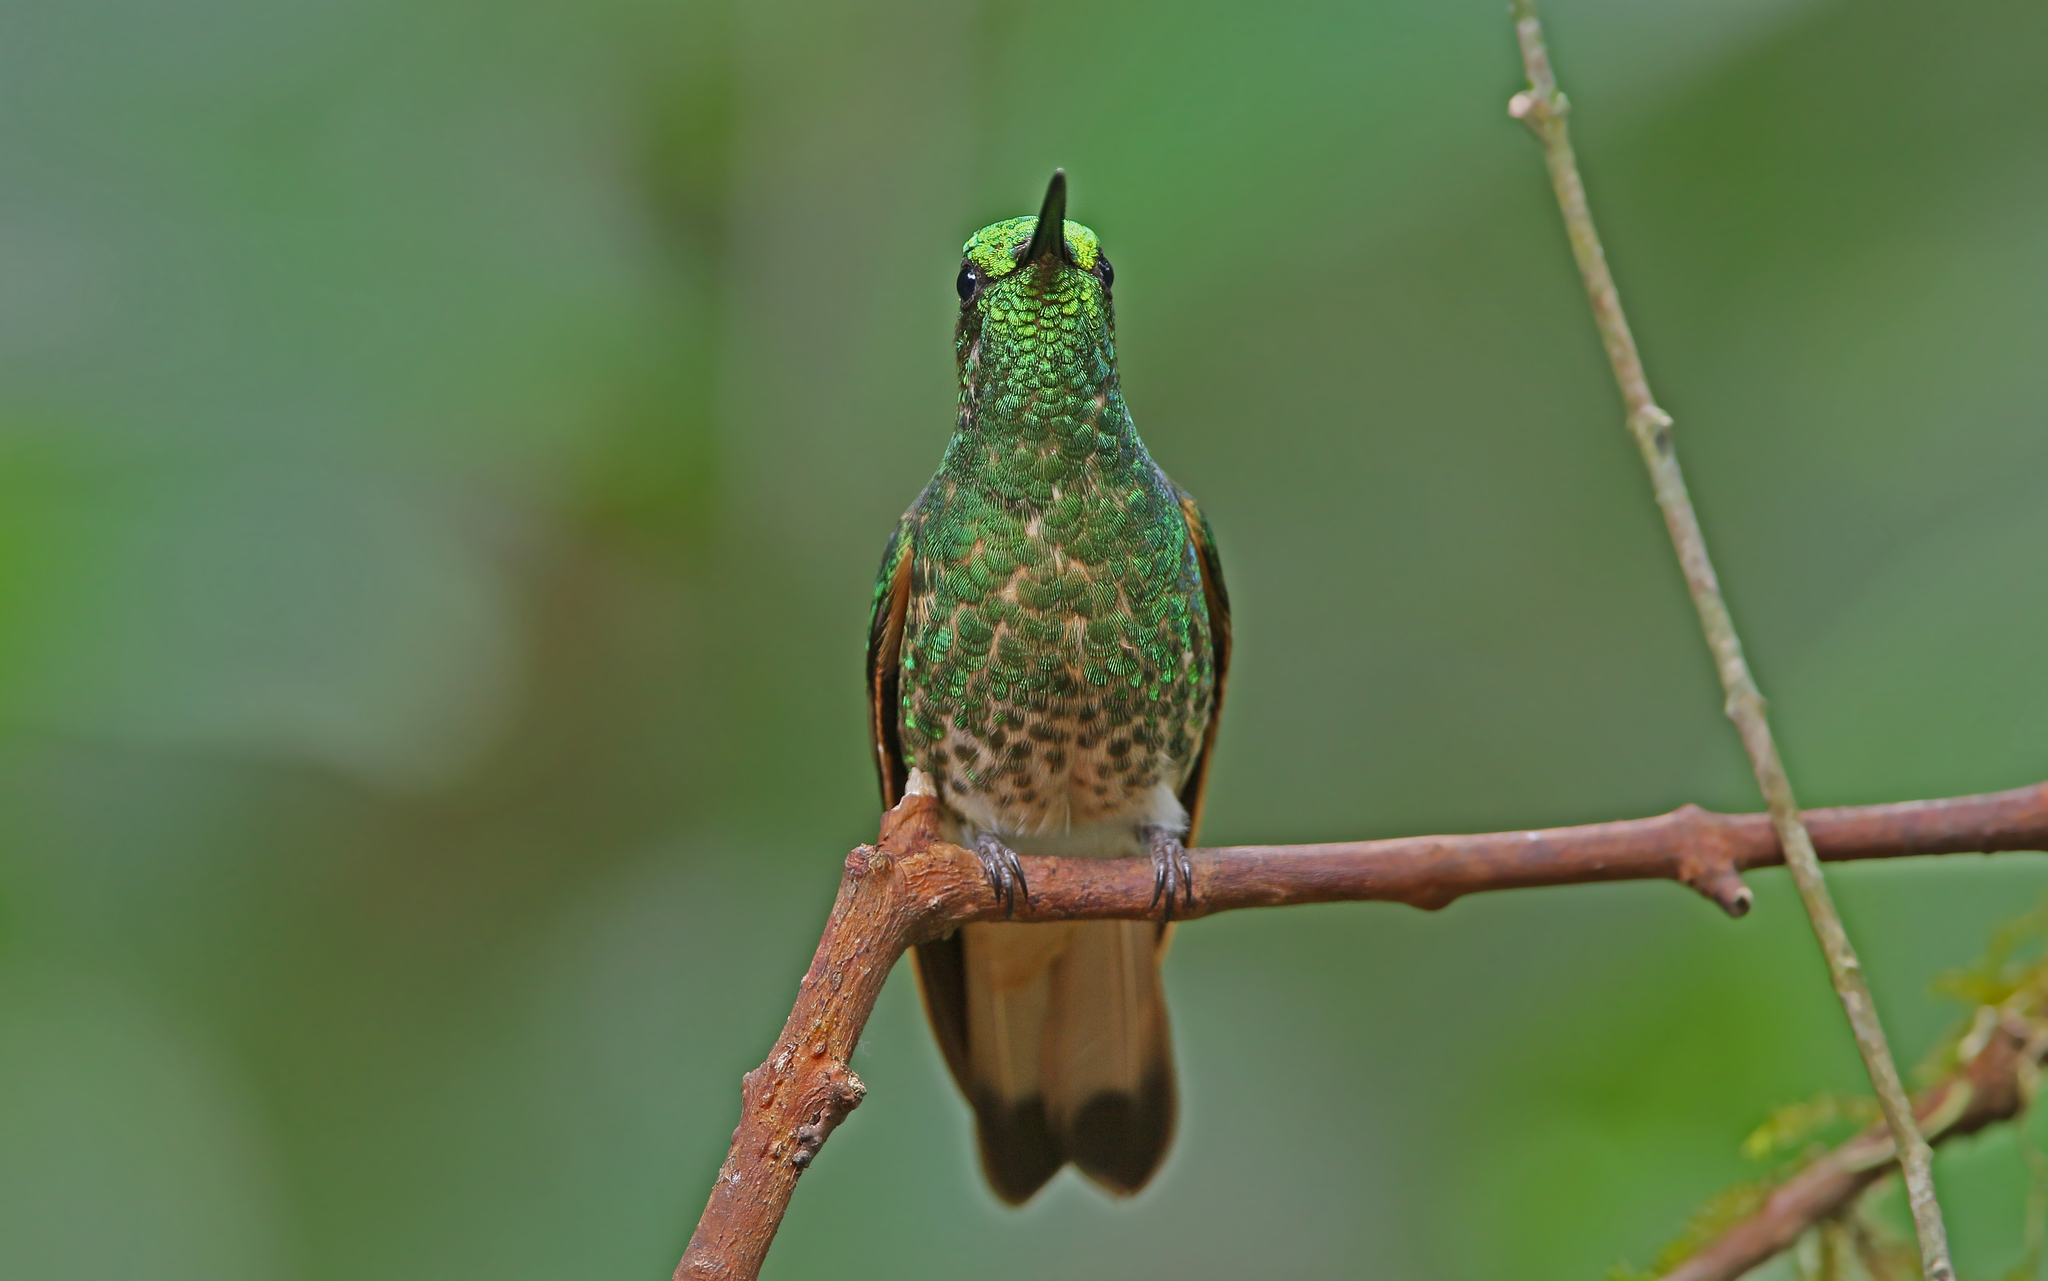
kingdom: Animalia
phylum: Chordata
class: Aves
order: Apodiformes
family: Trochilidae
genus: Boissonneaua
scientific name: Boissonneaua flavescens
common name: Buff-tailed coronet
